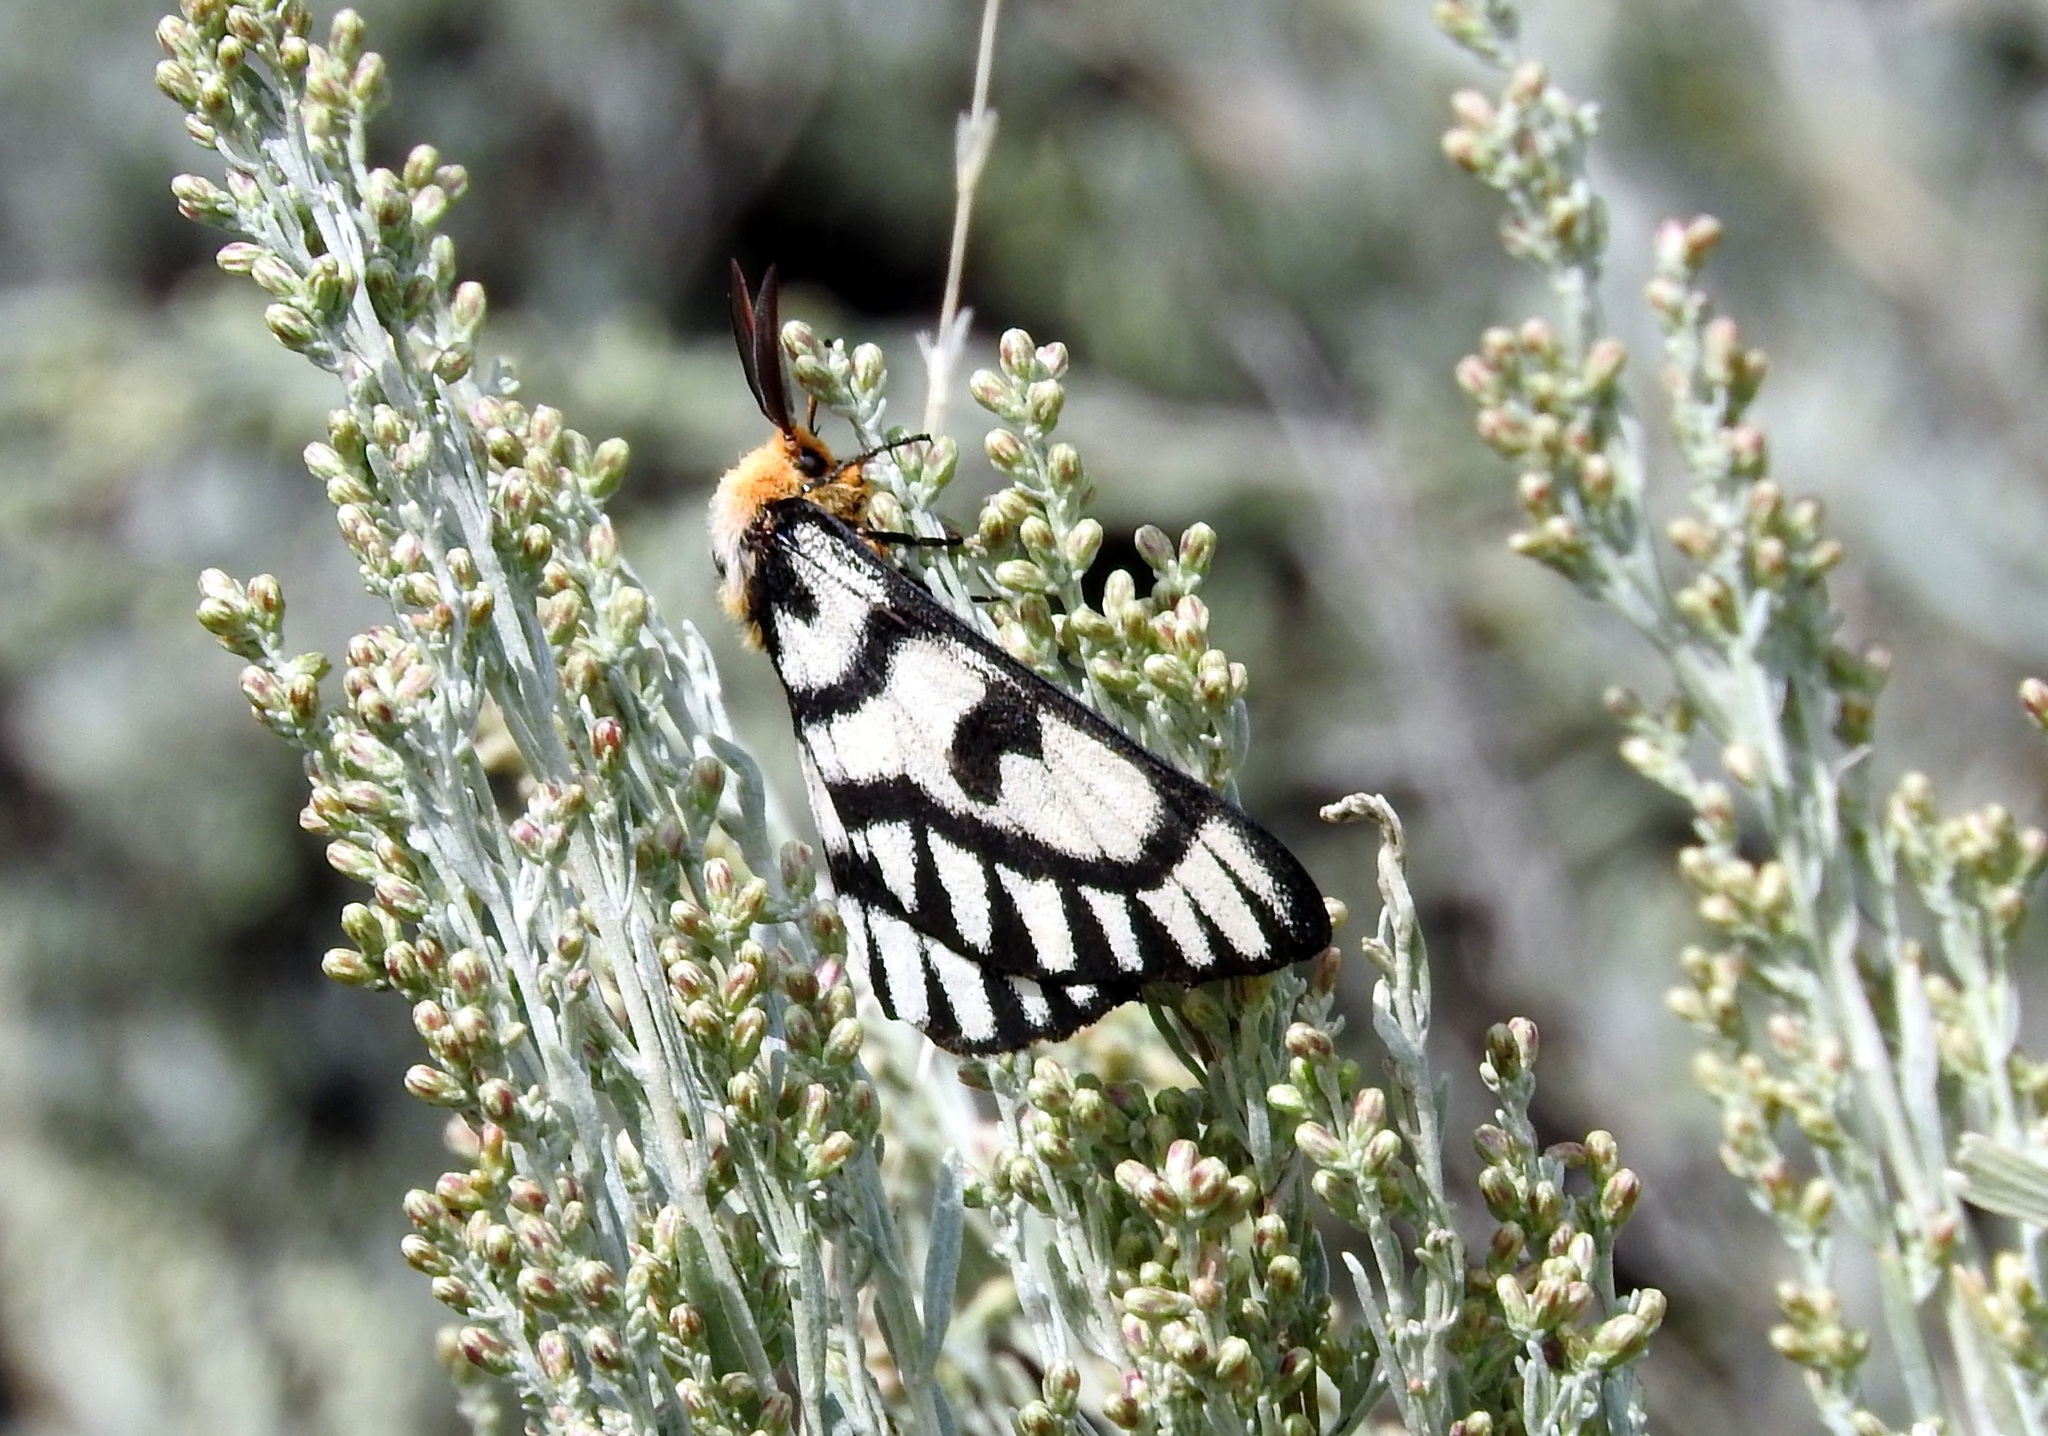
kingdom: Animalia
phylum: Arthropoda
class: Insecta
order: Lepidoptera
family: Saturniidae
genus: Hemileuca
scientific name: Hemileuca hera
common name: Hera sheepmoth
